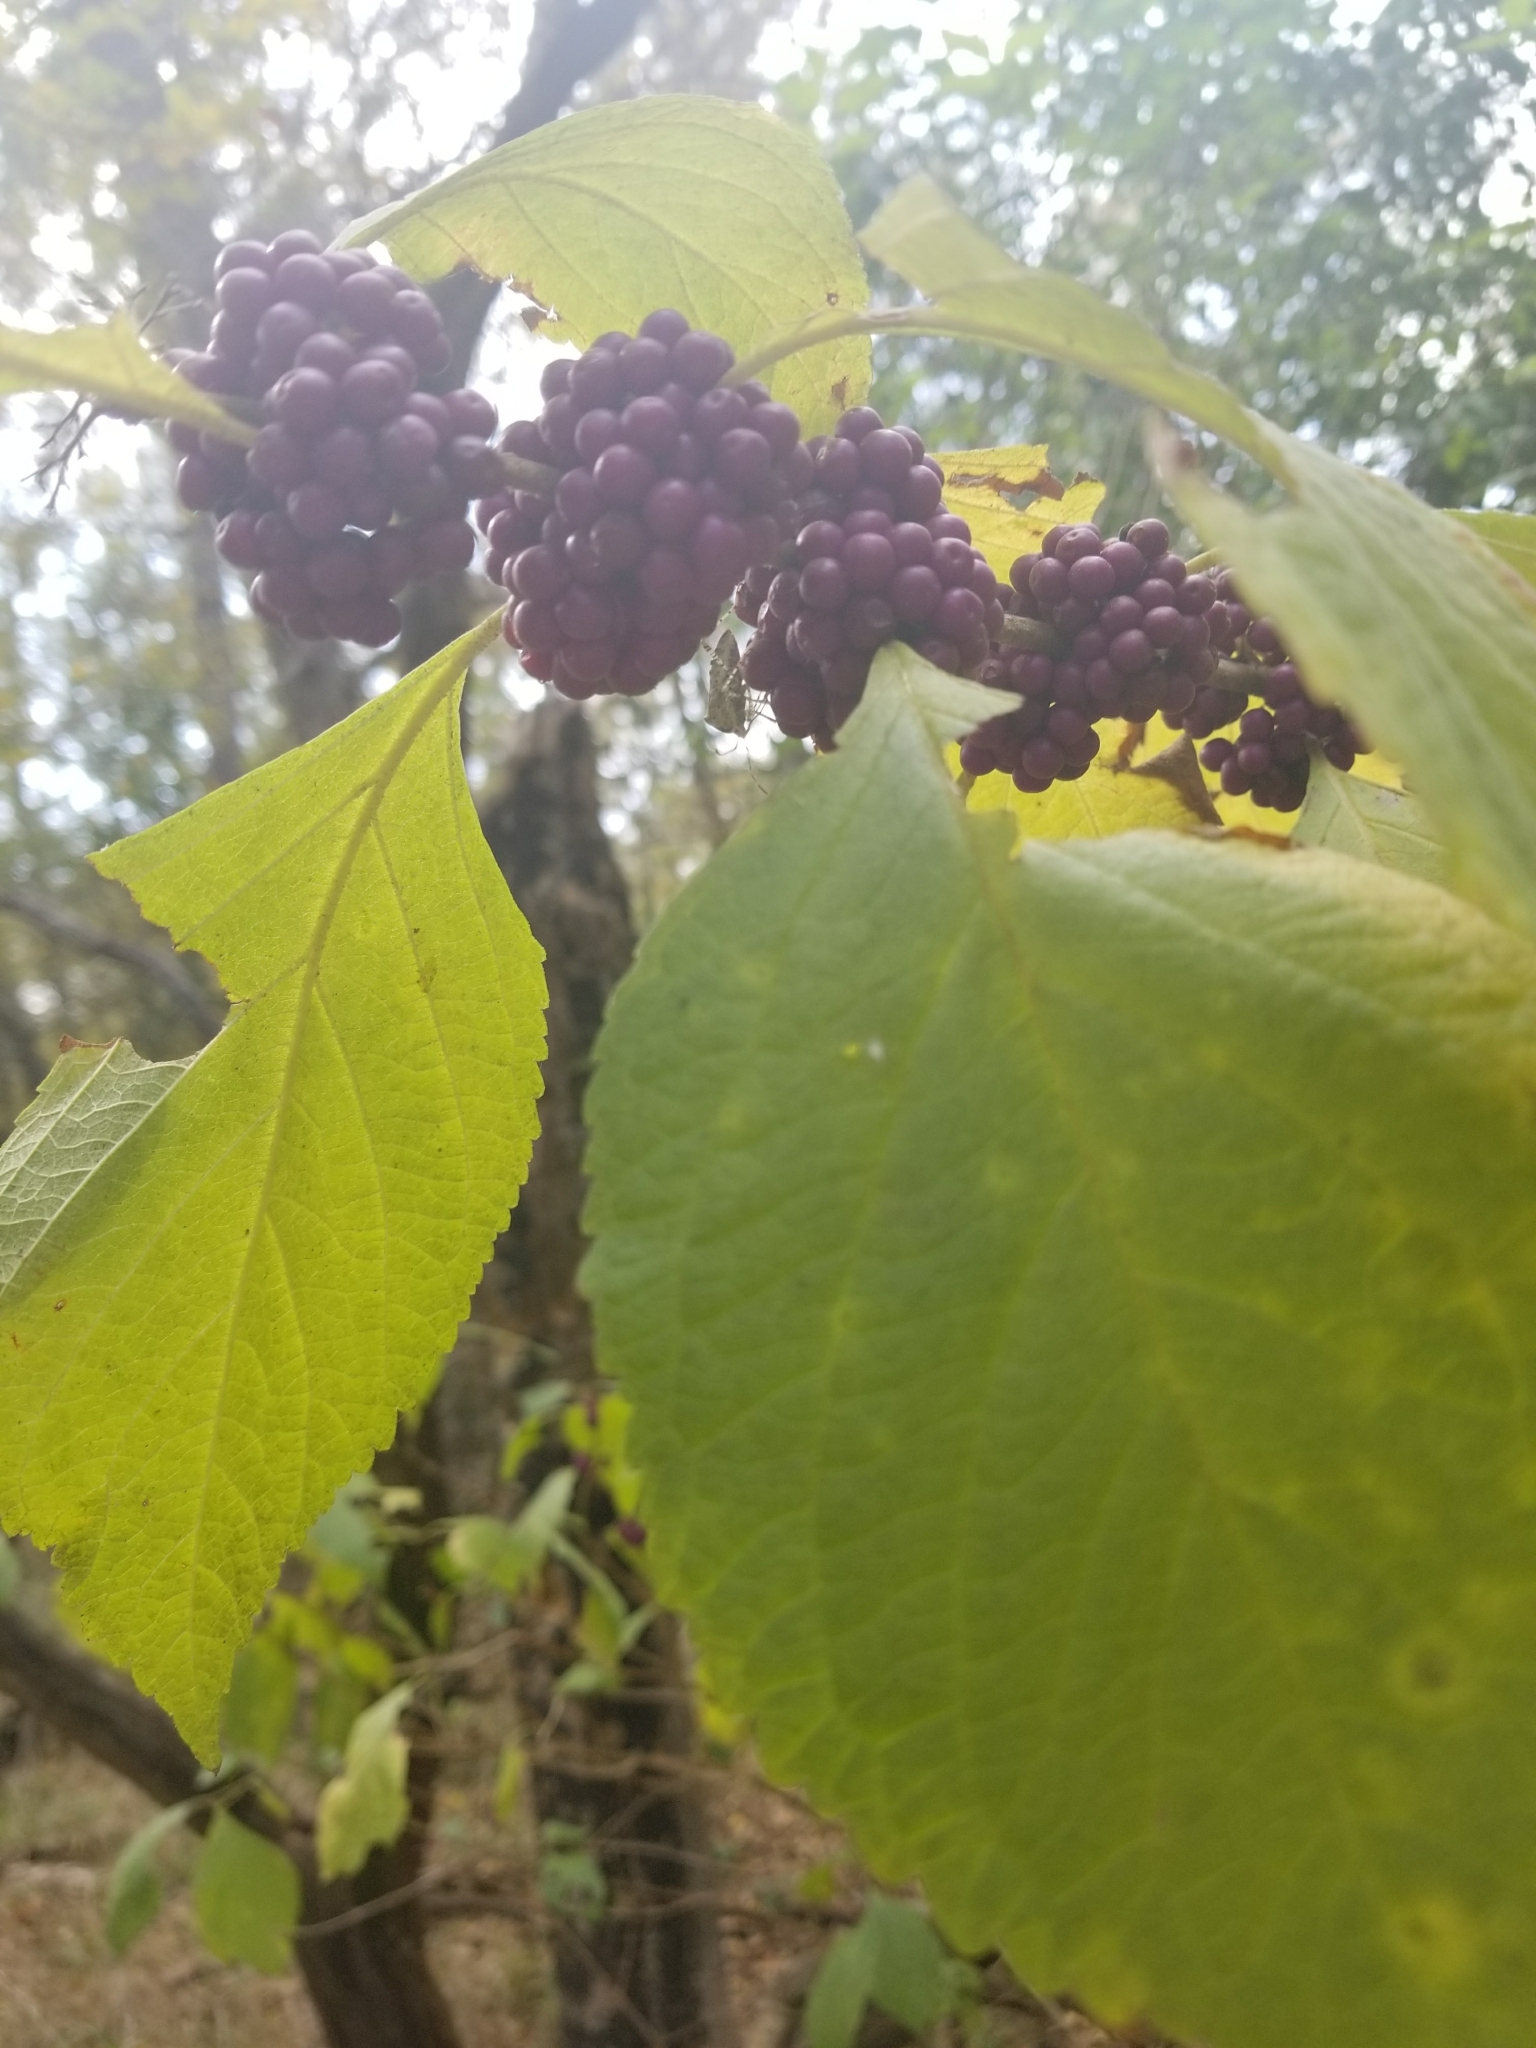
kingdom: Plantae
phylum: Tracheophyta
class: Magnoliopsida
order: Lamiales
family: Lamiaceae
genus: Callicarpa
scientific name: Callicarpa americana
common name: American beautyberry
